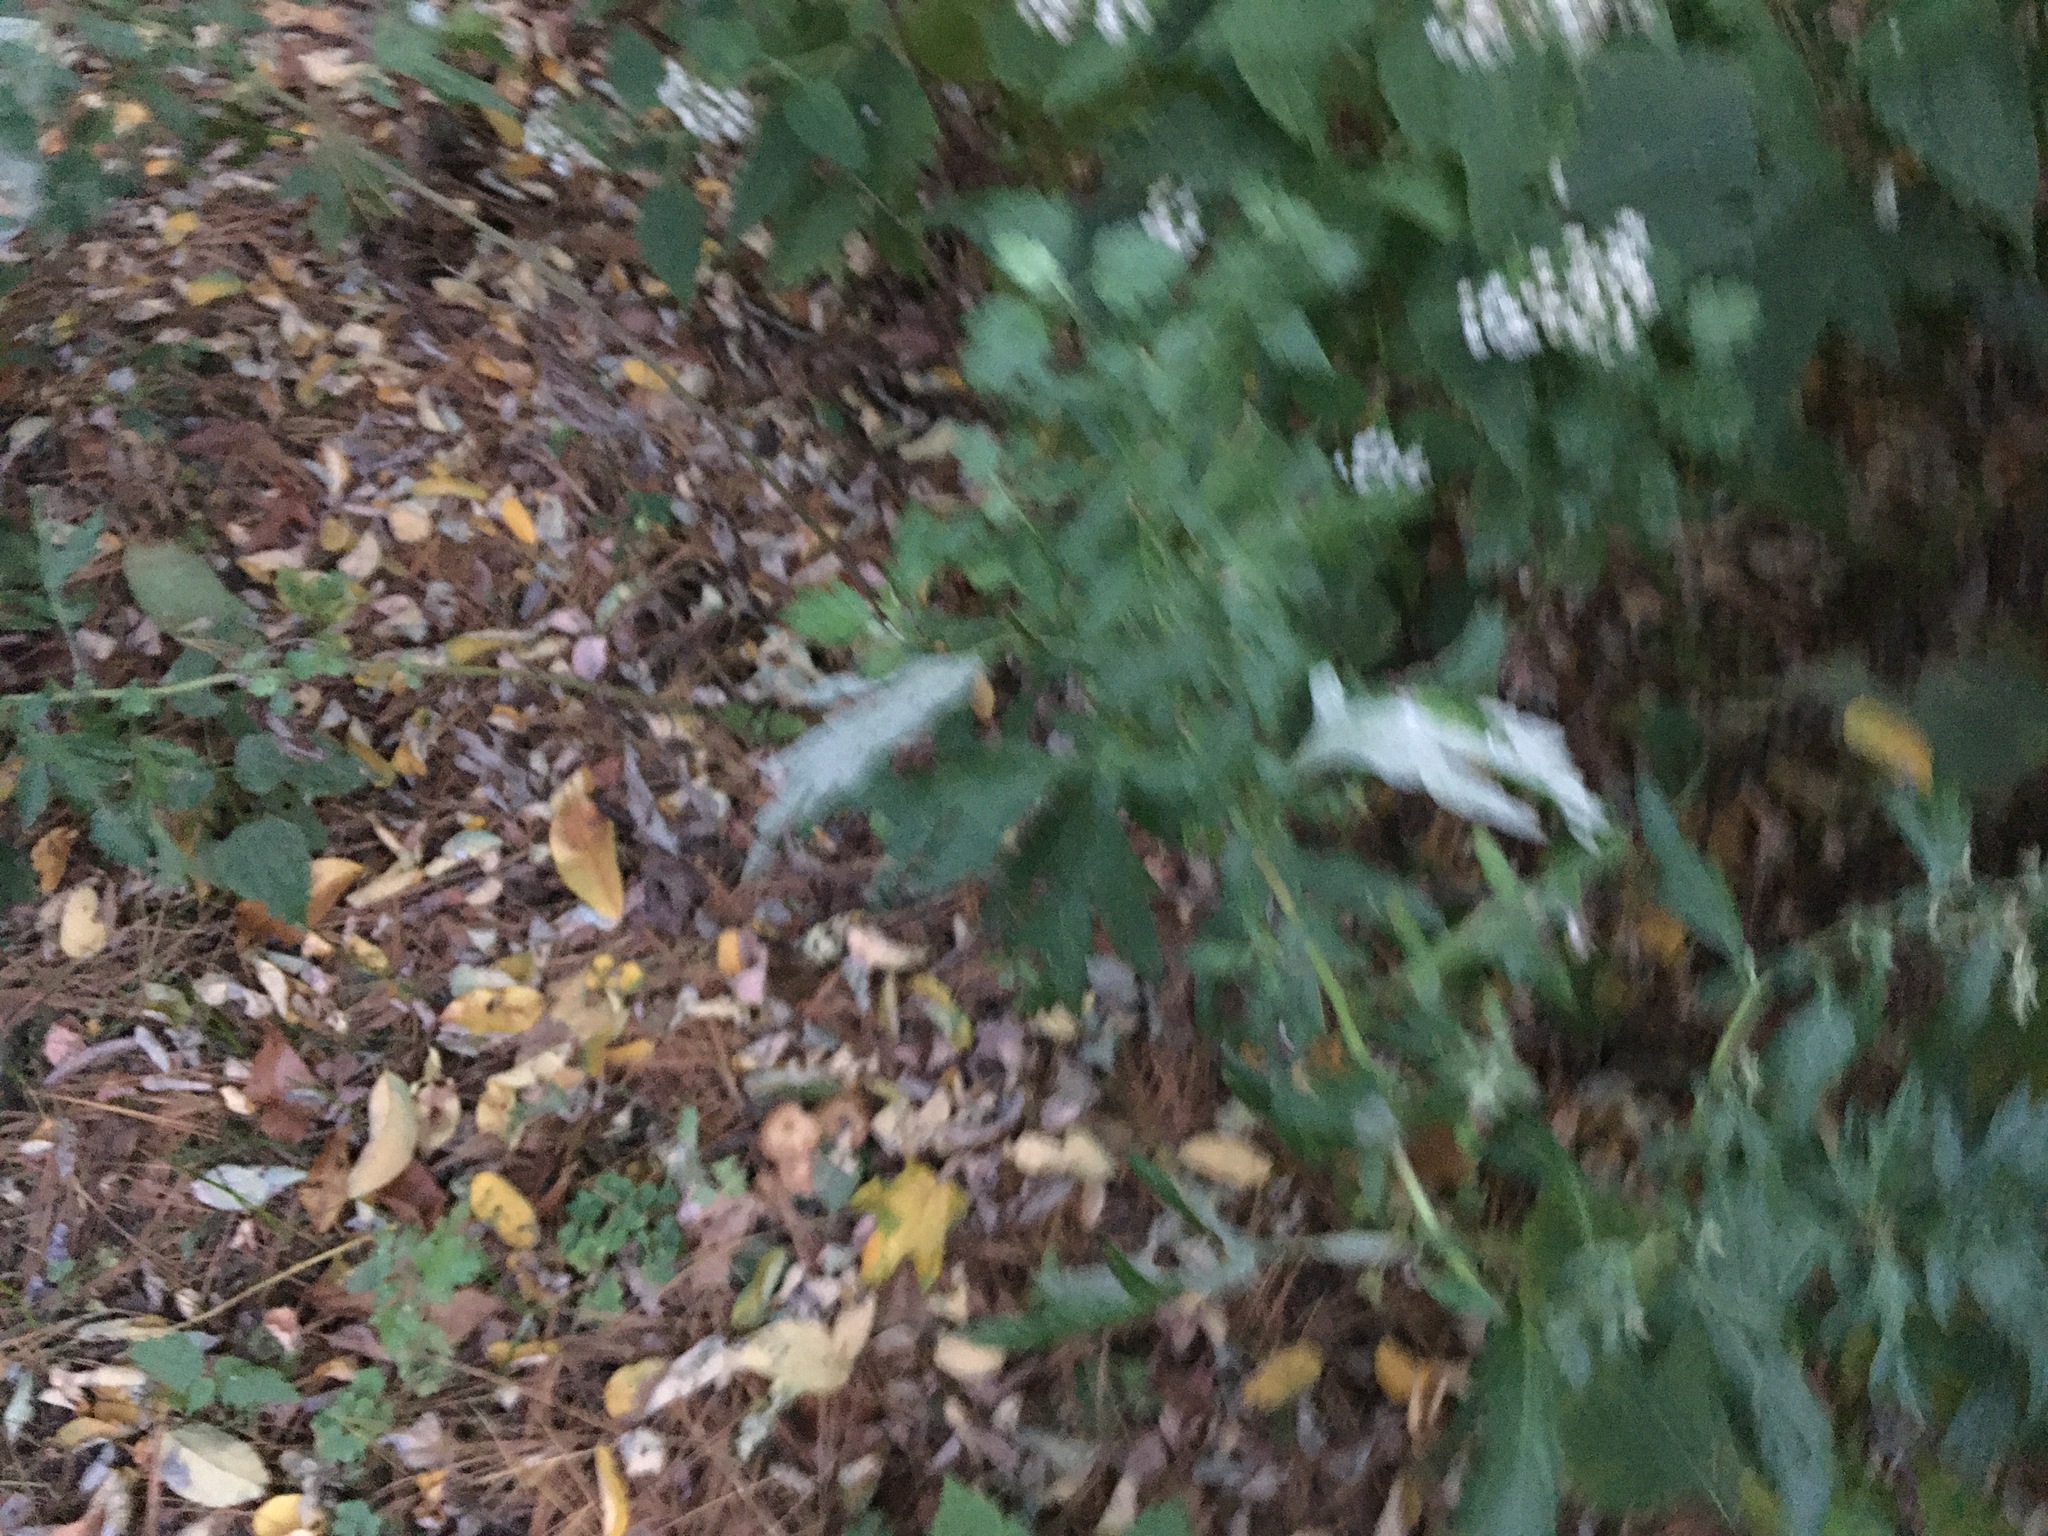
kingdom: Plantae
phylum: Tracheophyta
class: Magnoliopsida
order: Asterales
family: Asteraceae
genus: Artemisia
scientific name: Artemisia vulgaris
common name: Mugwort
